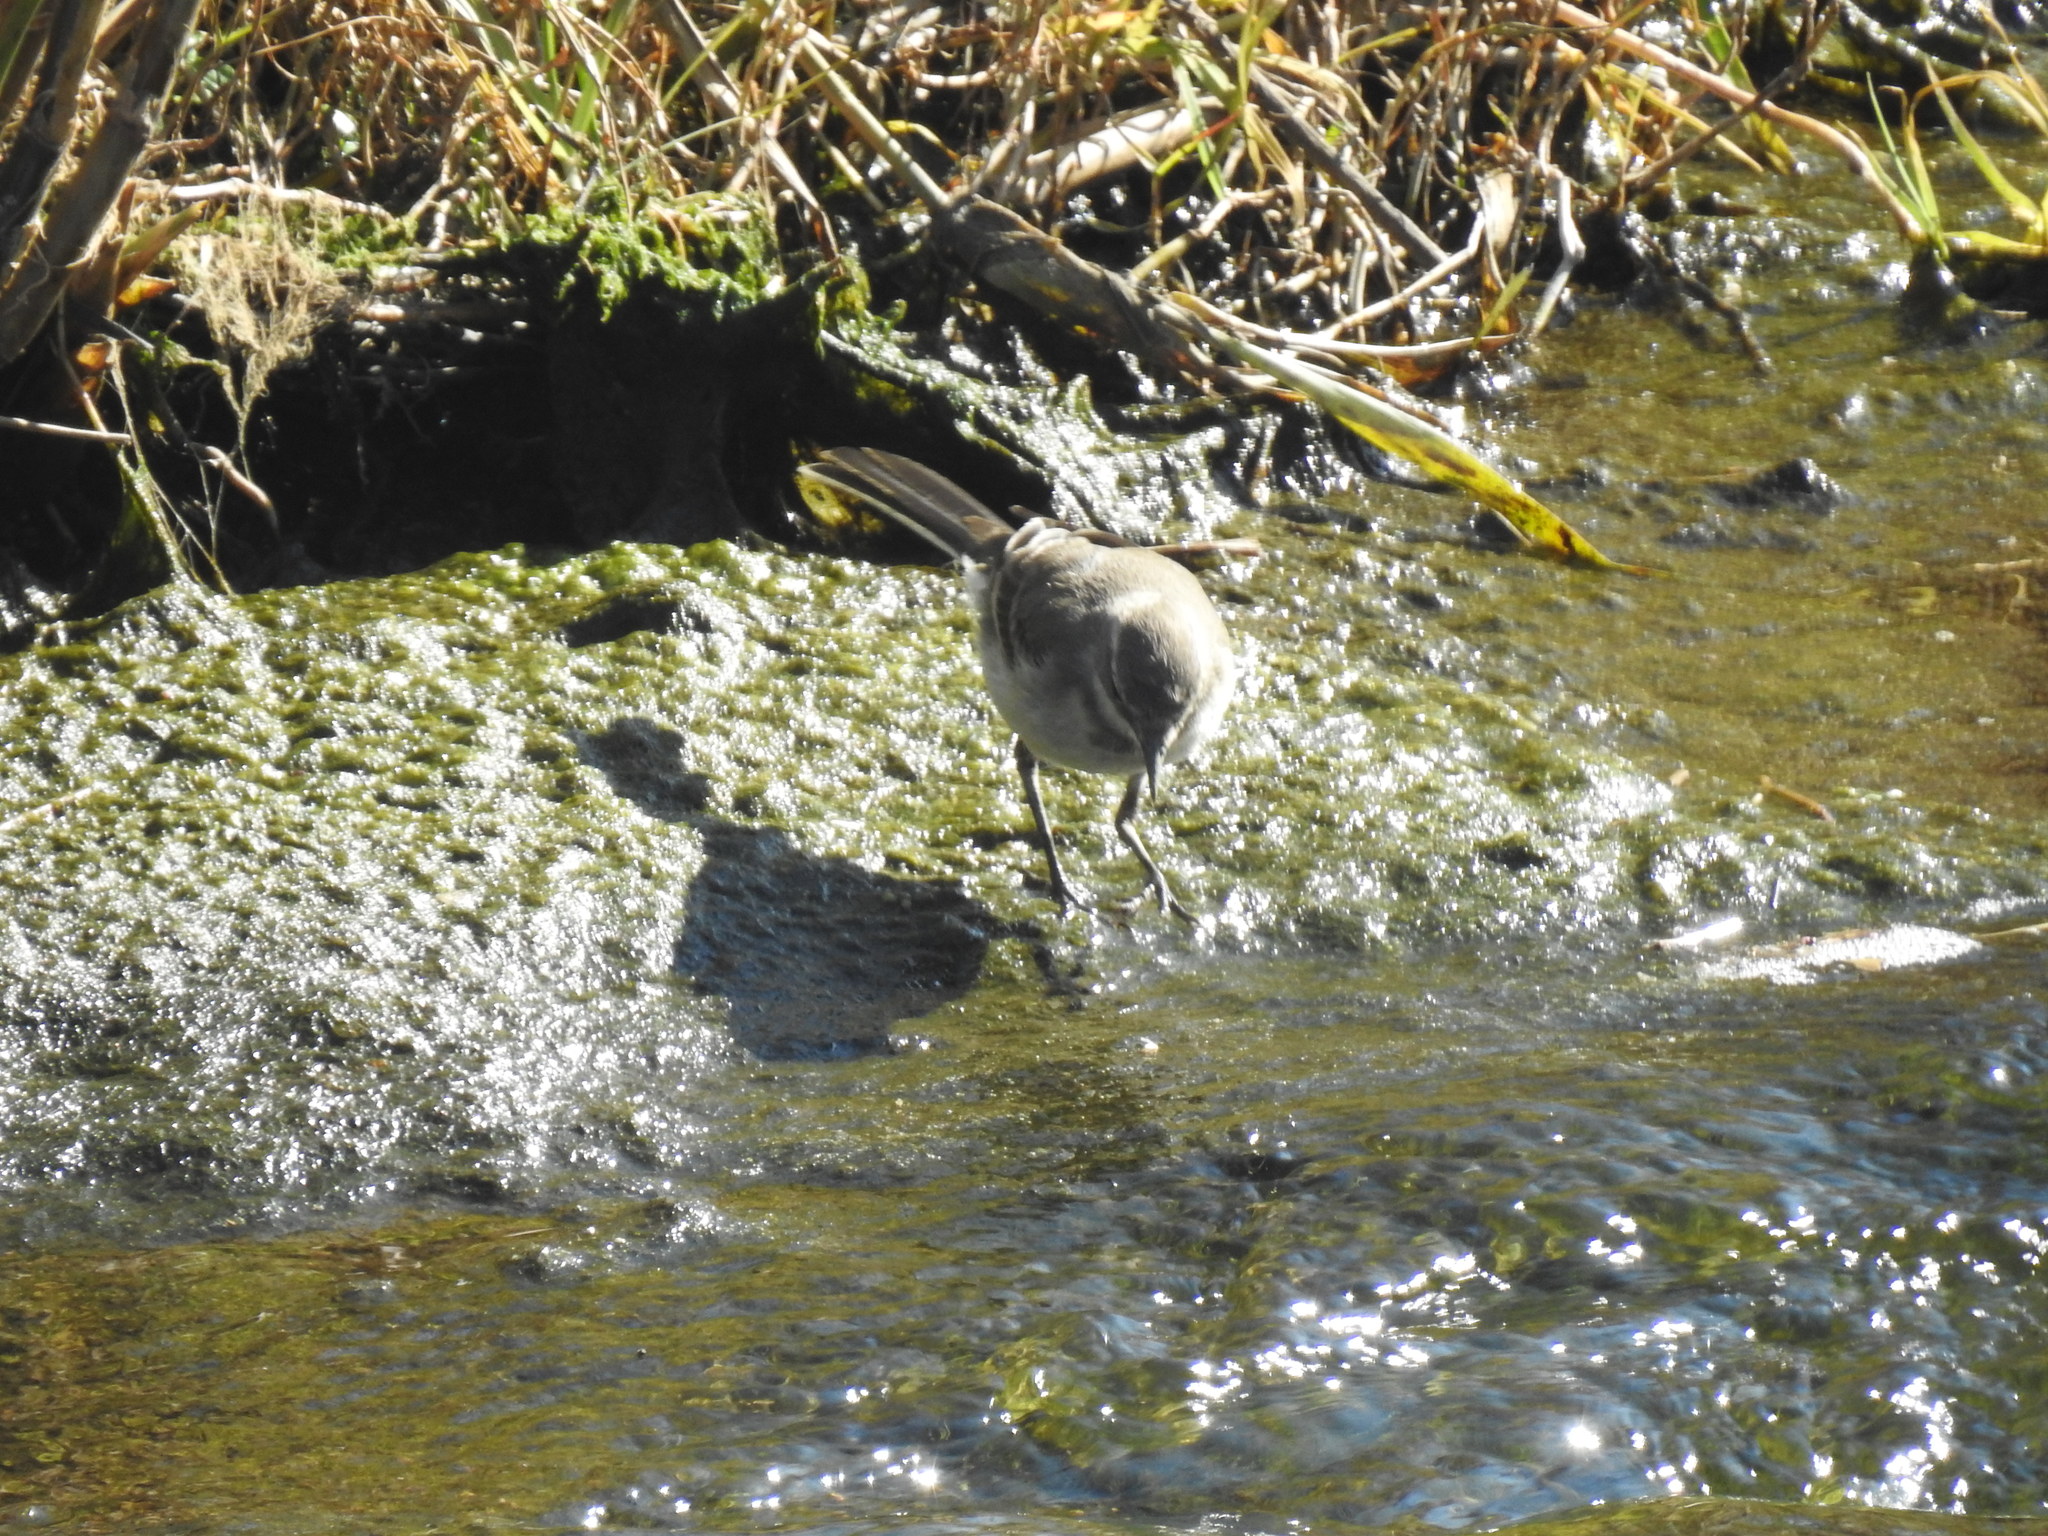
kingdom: Animalia
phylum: Chordata
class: Aves
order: Passeriformes
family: Motacillidae
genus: Motacilla
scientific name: Motacilla capensis
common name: Cape wagtail
